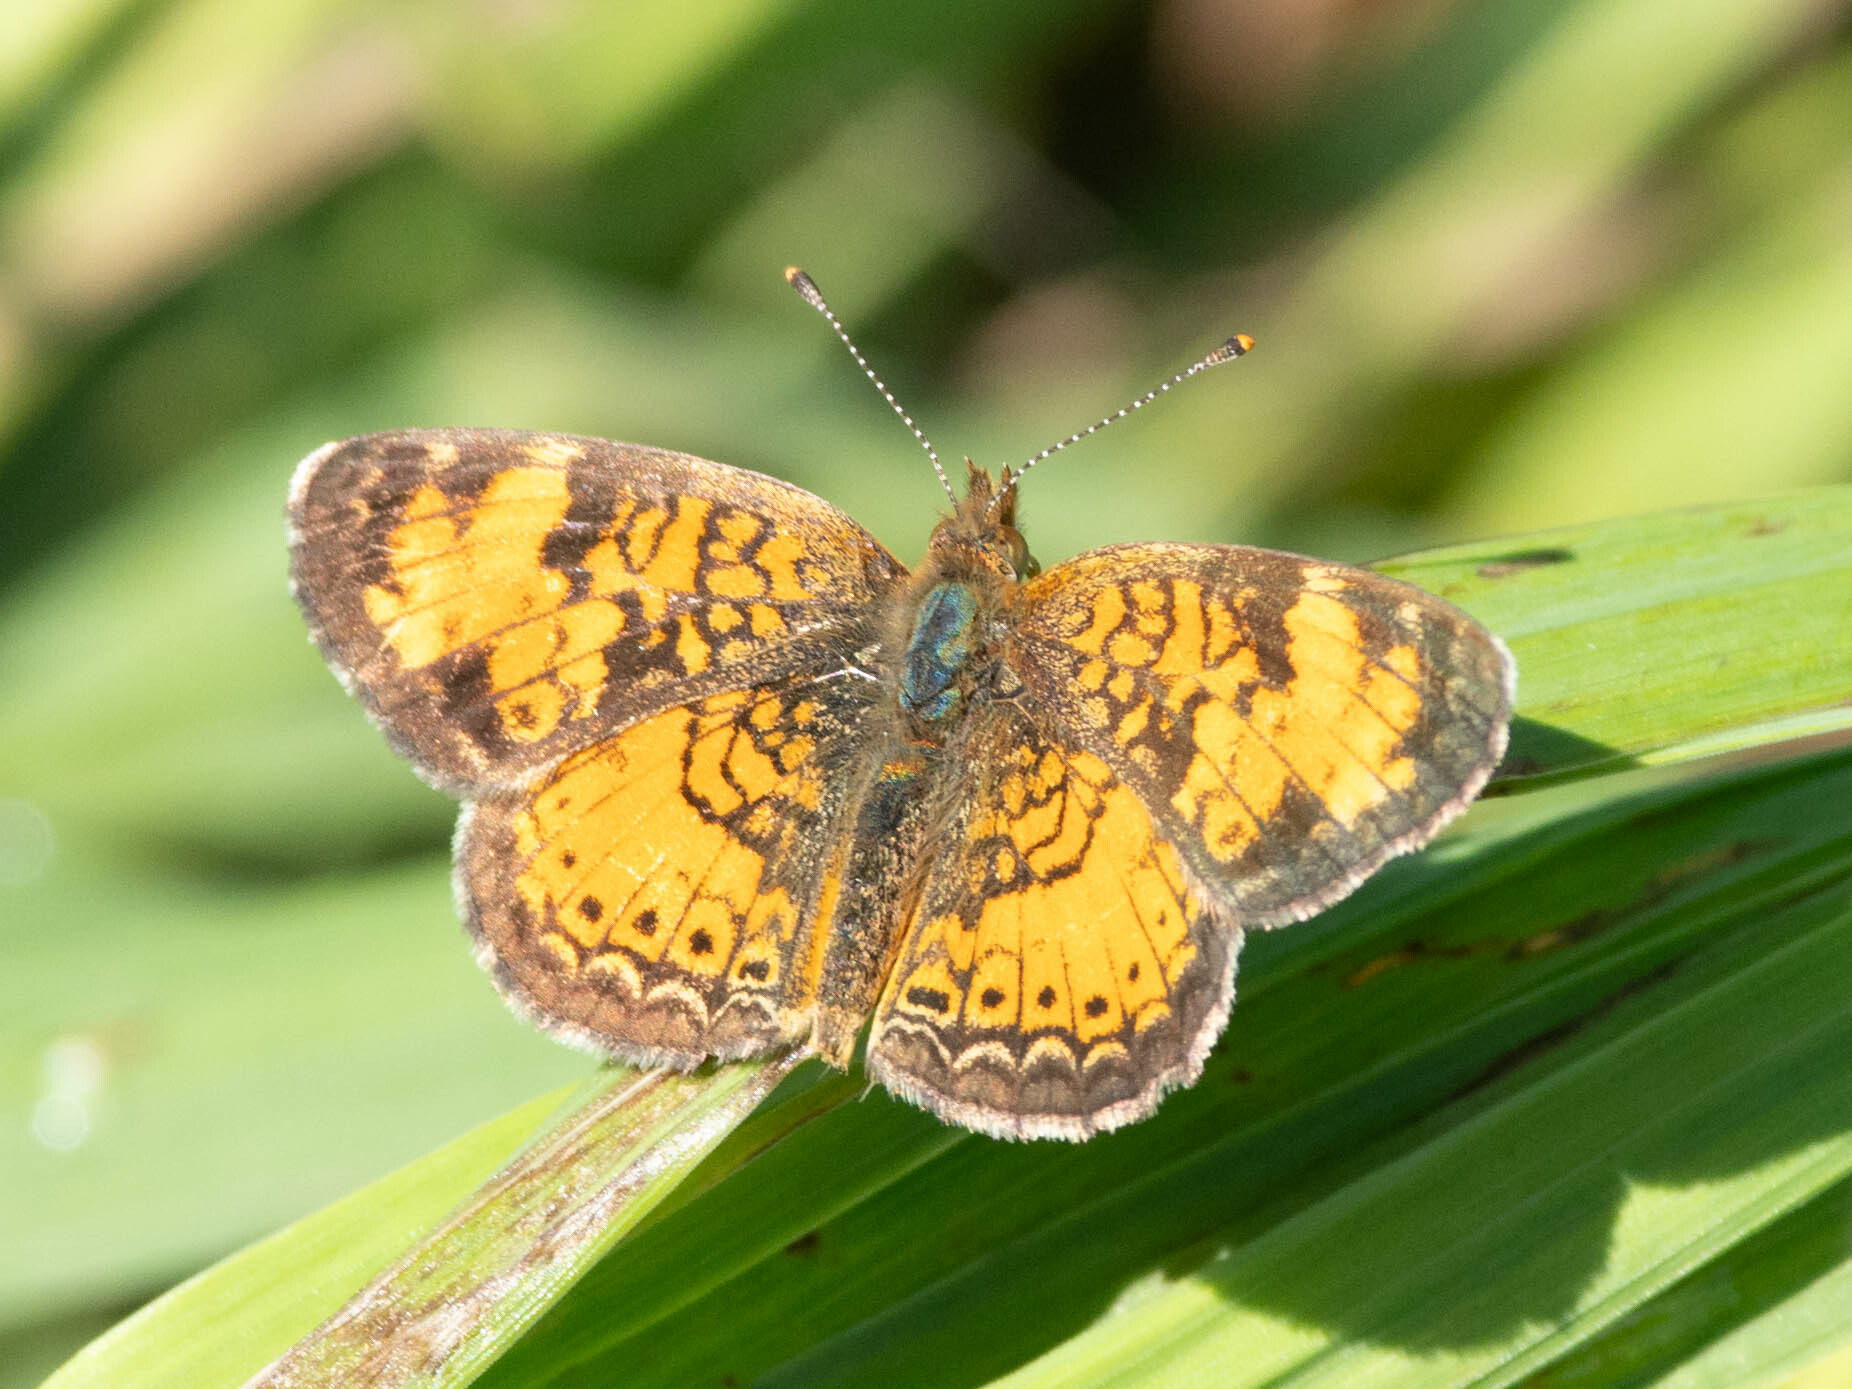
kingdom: Animalia
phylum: Arthropoda
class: Insecta
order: Lepidoptera
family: Nymphalidae
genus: Phyciodes
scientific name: Phyciodes tharos
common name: Pearl crescent
